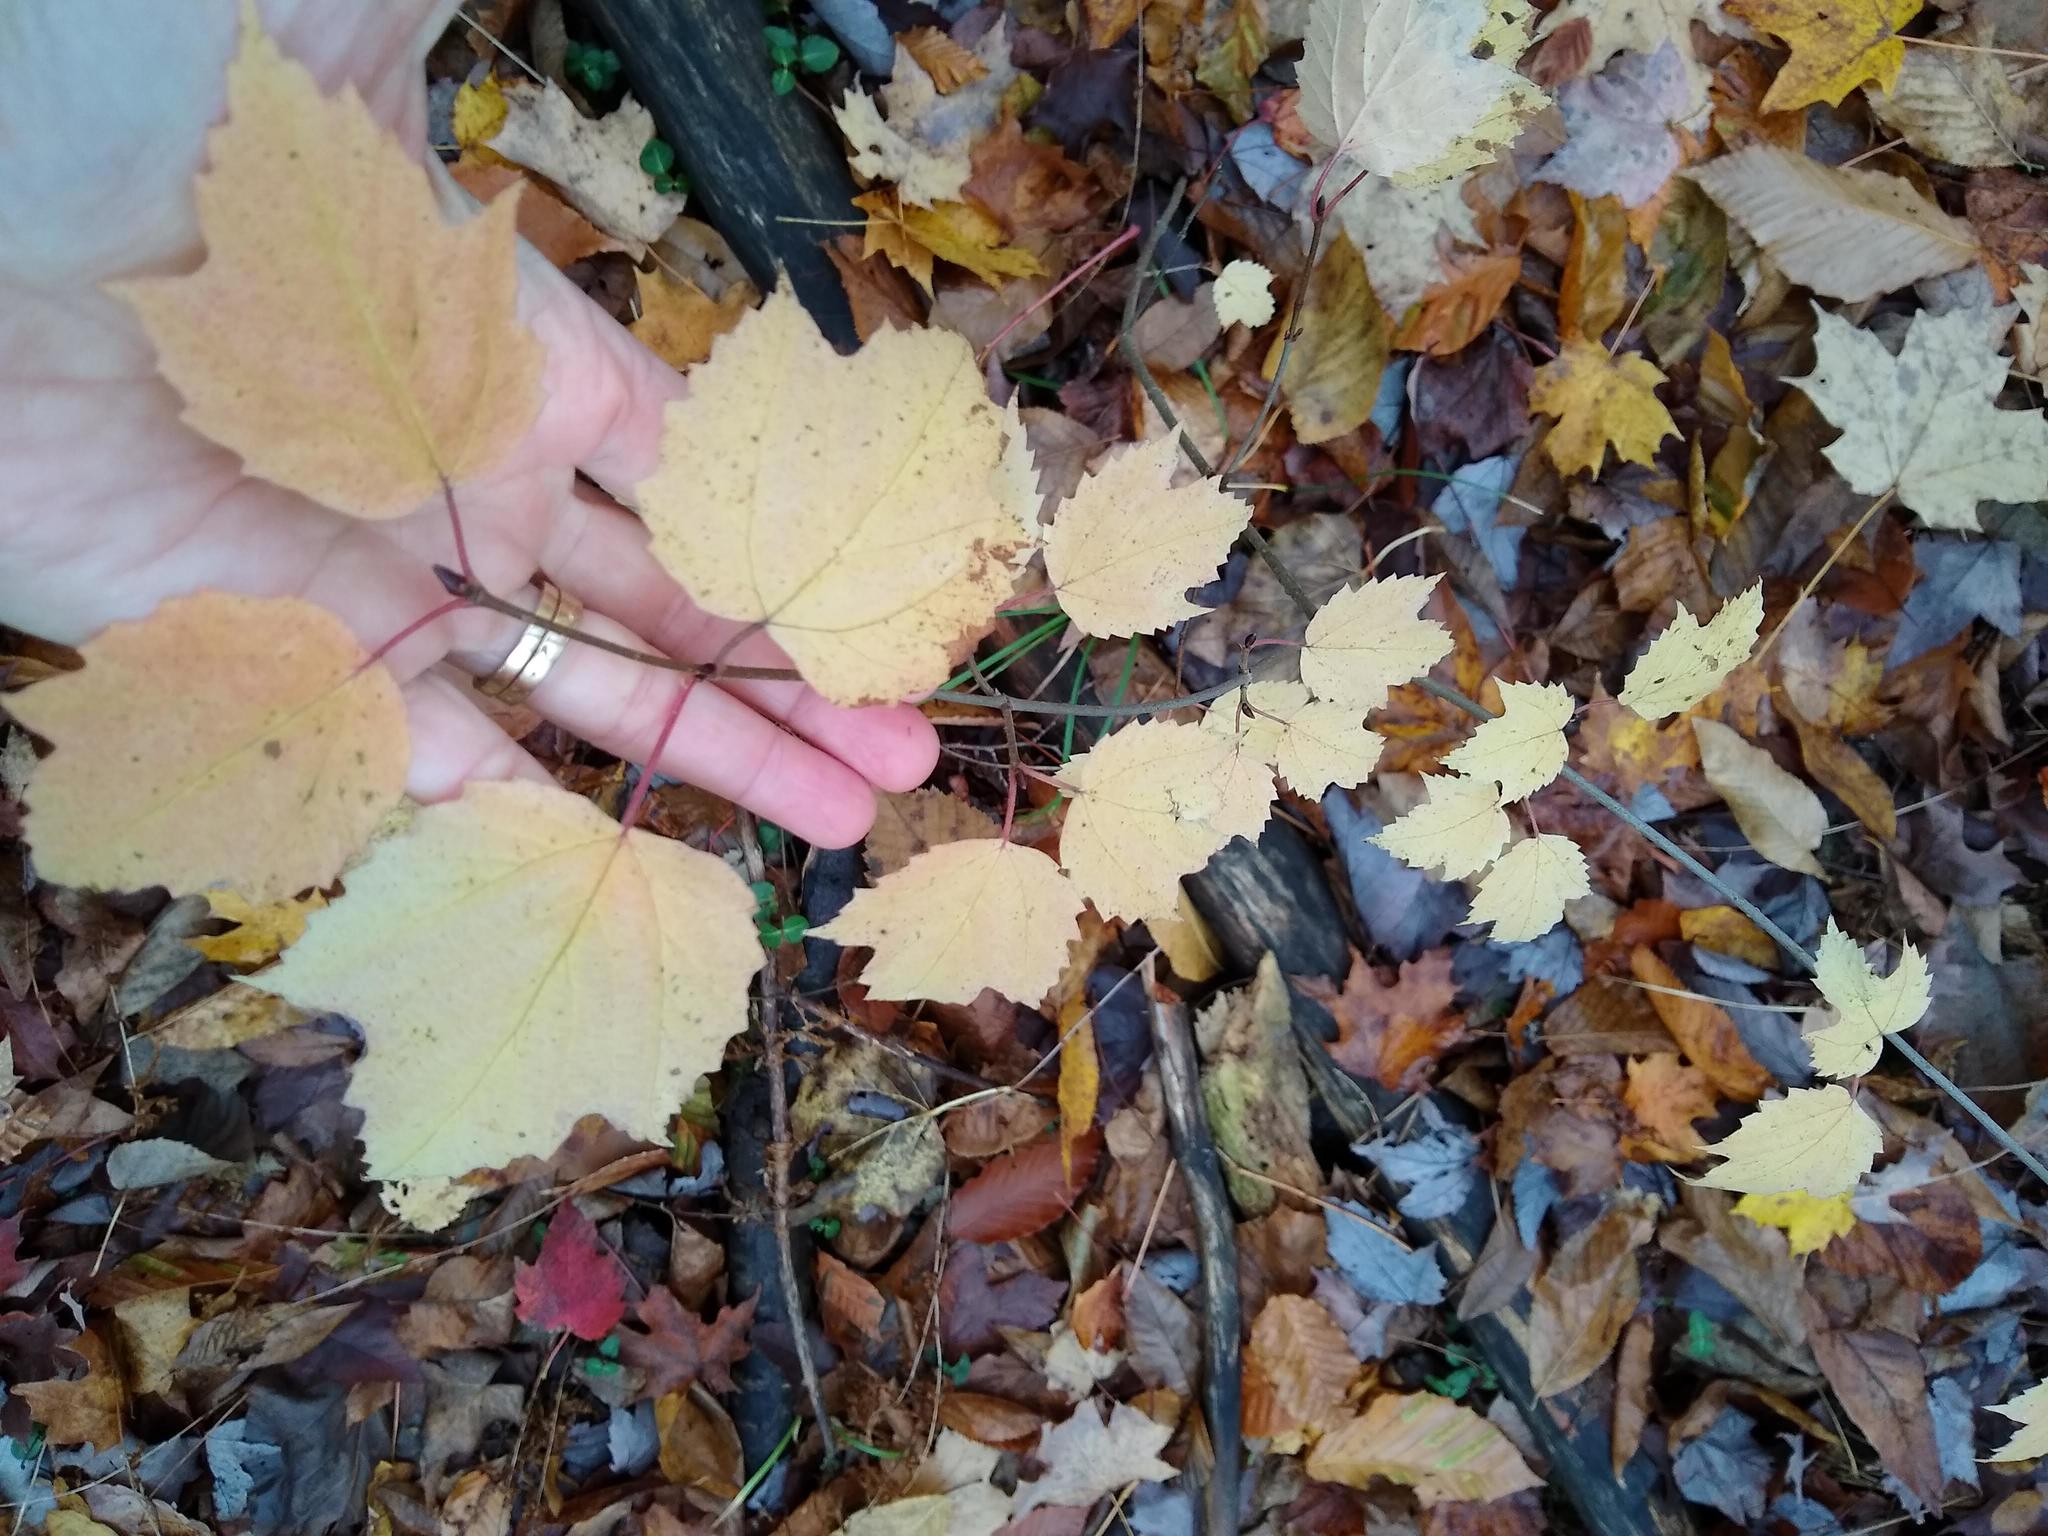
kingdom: Plantae
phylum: Tracheophyta
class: Magnoliopsida
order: Dipsacales
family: Viburnaceae
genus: Viburnum
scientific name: Viburnum acerifolium
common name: Dockmackie
